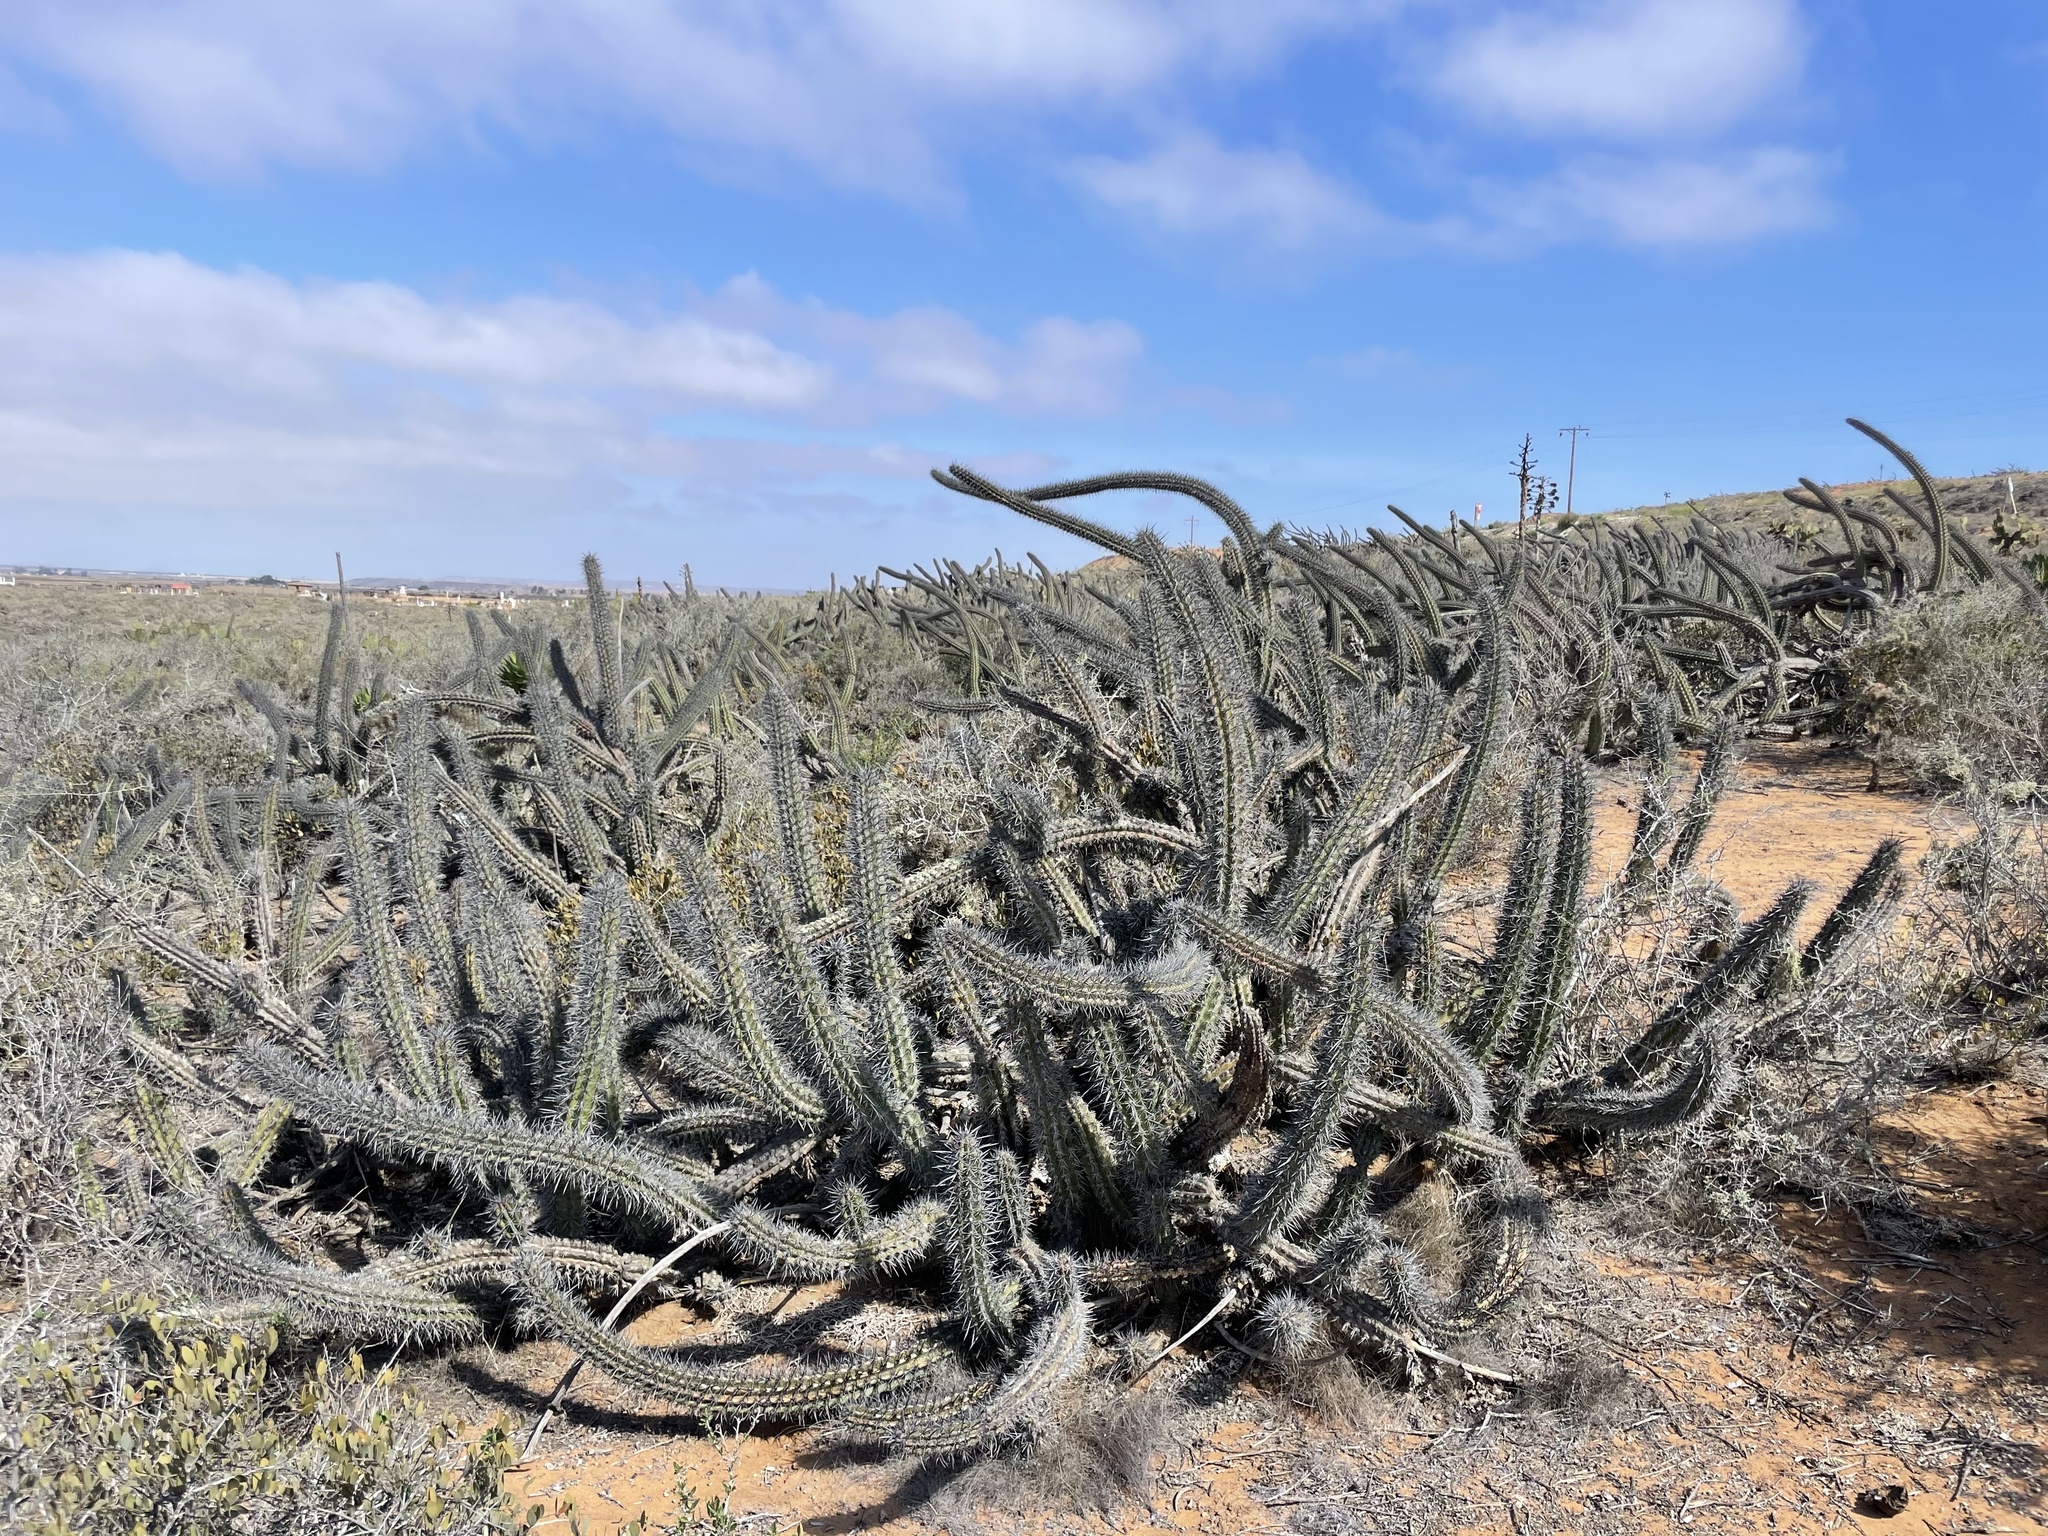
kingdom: Plantae
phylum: Tracheophyta
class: Magnoliopsida
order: Caryophyllales
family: Cactaceae
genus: Stenocereus
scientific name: Stenocereus gummosus
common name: Dagger cactus
